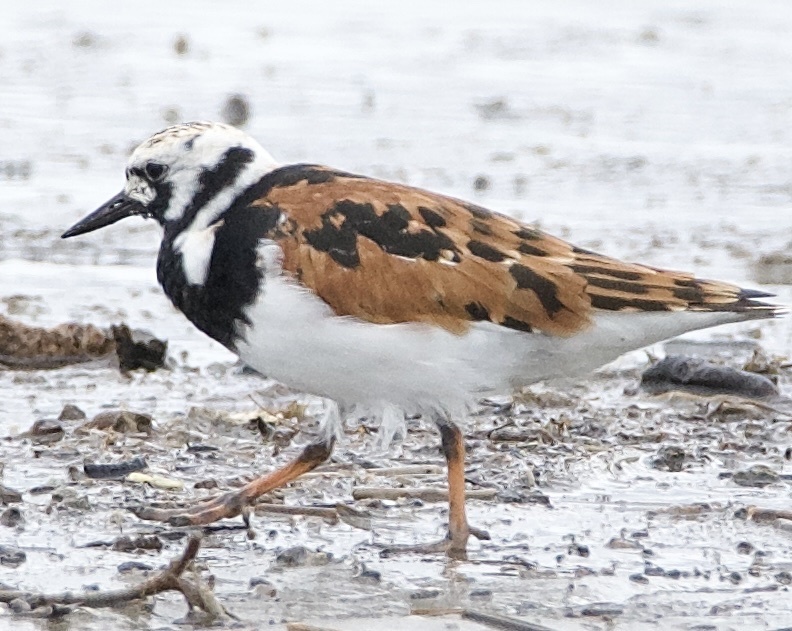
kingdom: Animalia
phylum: Chordata
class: Aves
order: Charadriiformes
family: Scolopacidae
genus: Arenaria
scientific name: Arenaria interpres
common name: Ruddy turnstone
